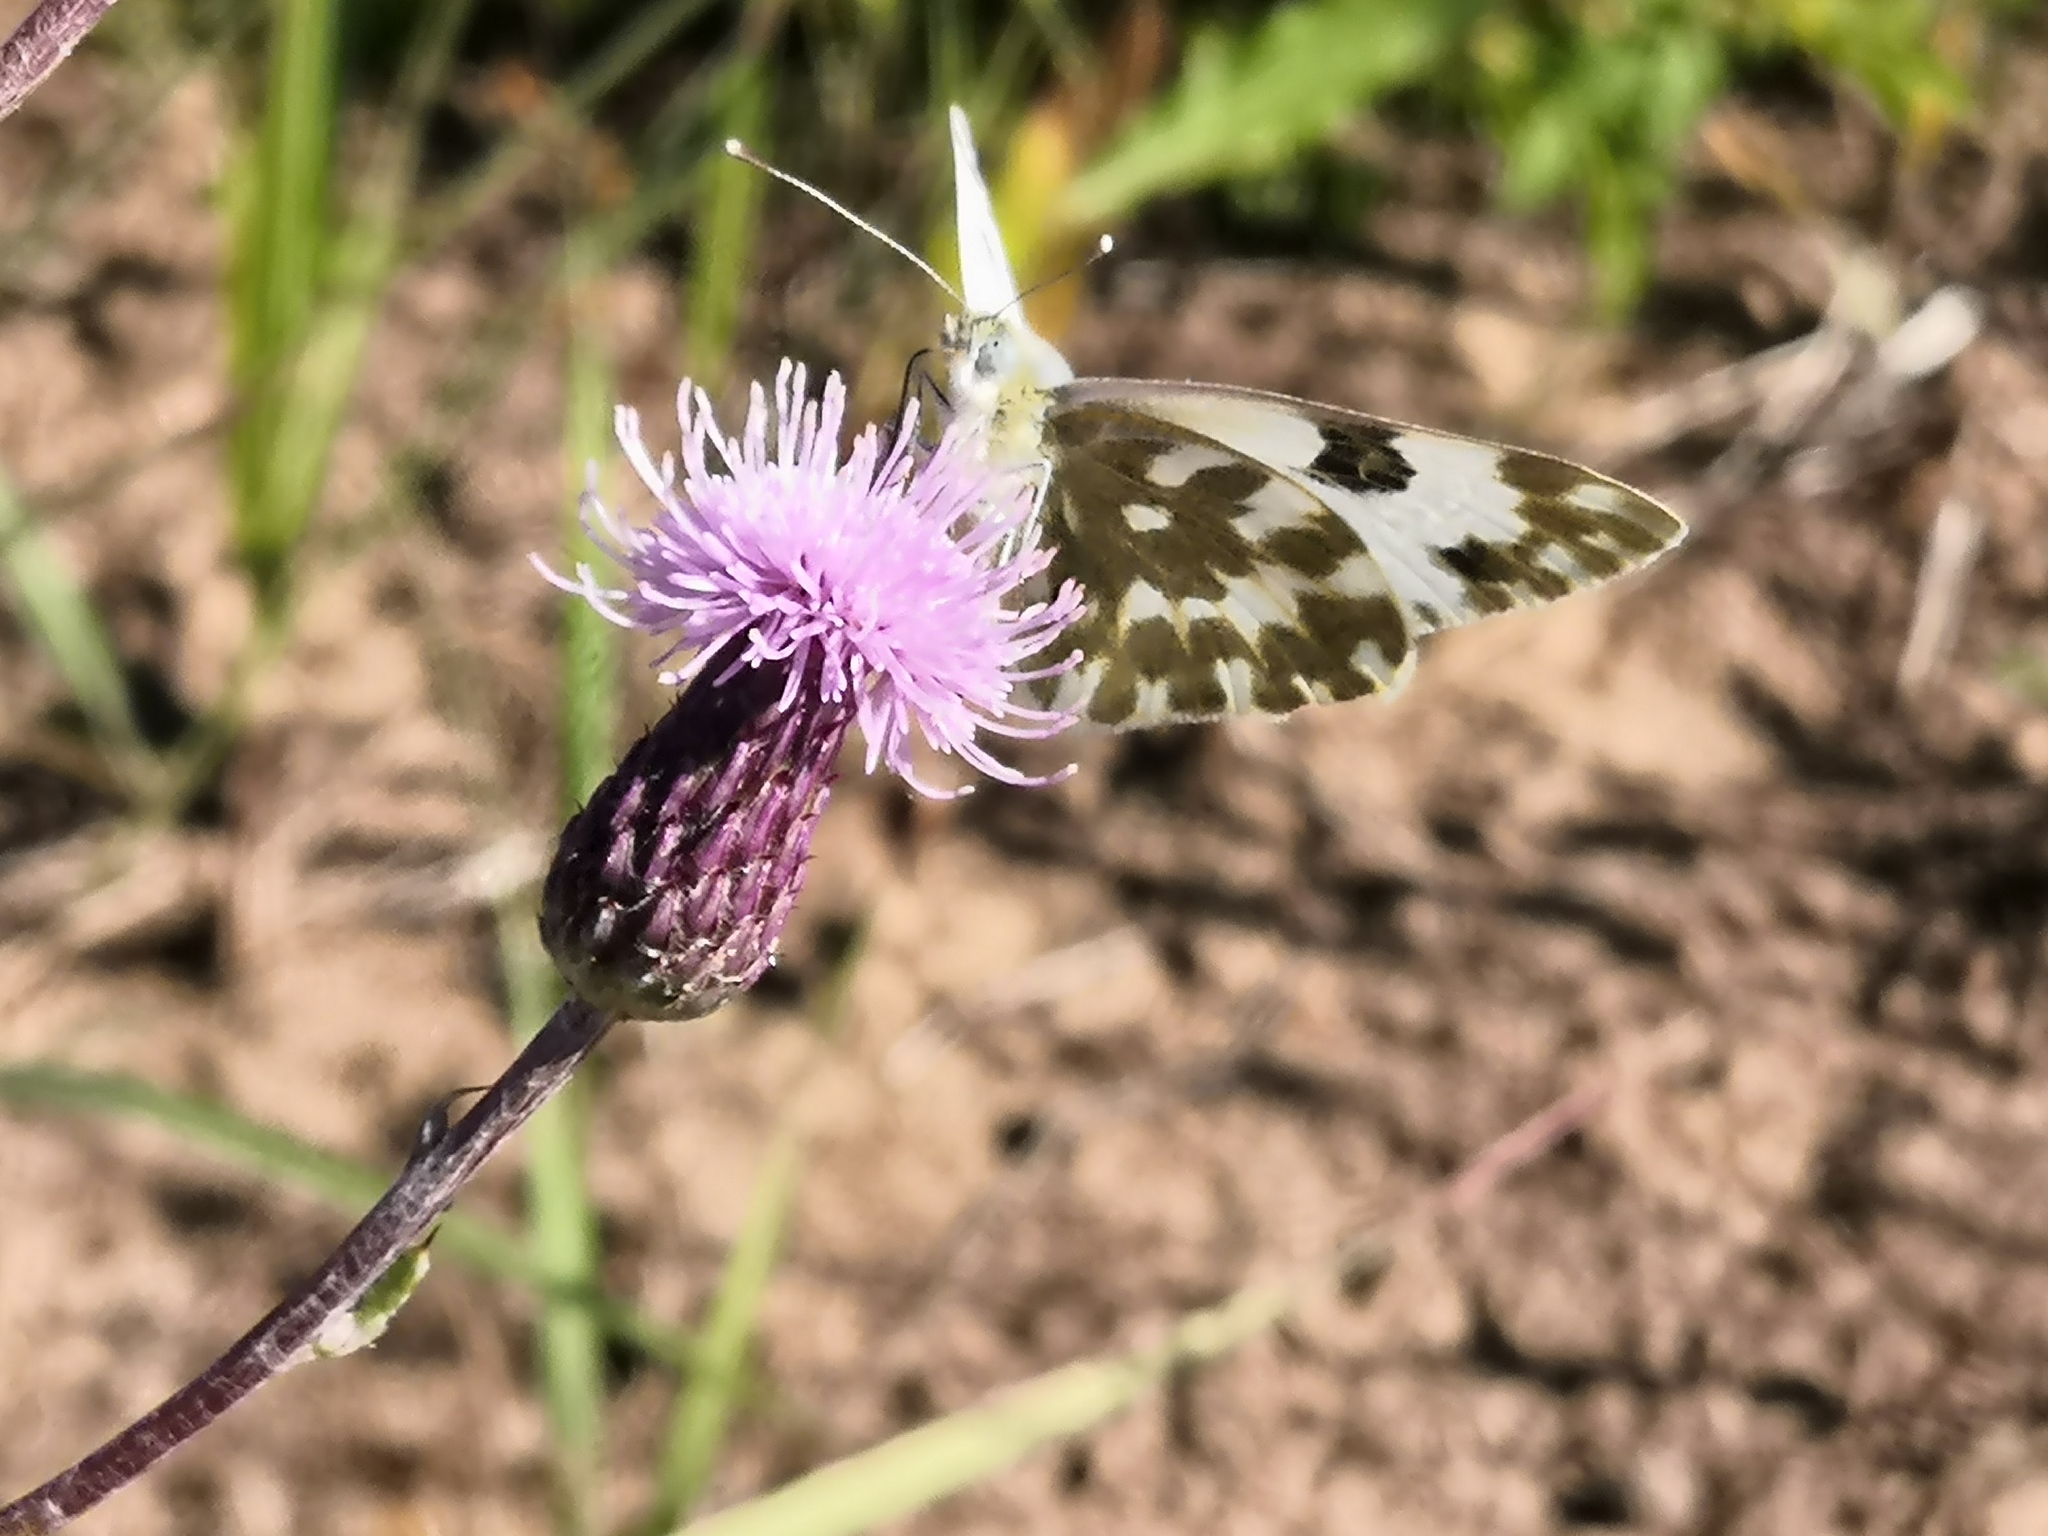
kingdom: Animalia
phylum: Arthropoda
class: Insecta
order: Lepidoptera
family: Pieridae
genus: Pontia
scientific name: Pontia edusa
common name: Eastern bath white
